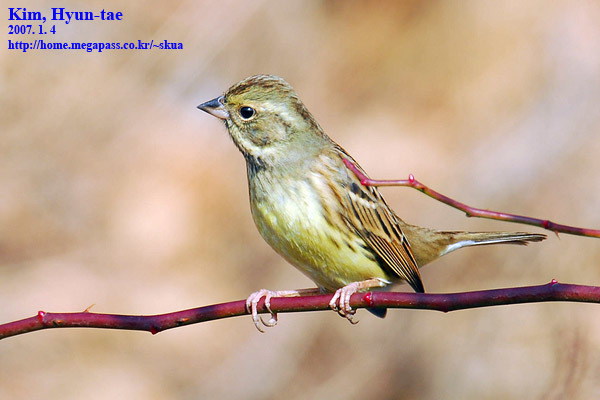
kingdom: Animalia
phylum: Chordata
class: Aves
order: Passeriformes
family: Emberizidae
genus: Emberiza
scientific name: Emberiza spodocephala
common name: Black-faced bunting
